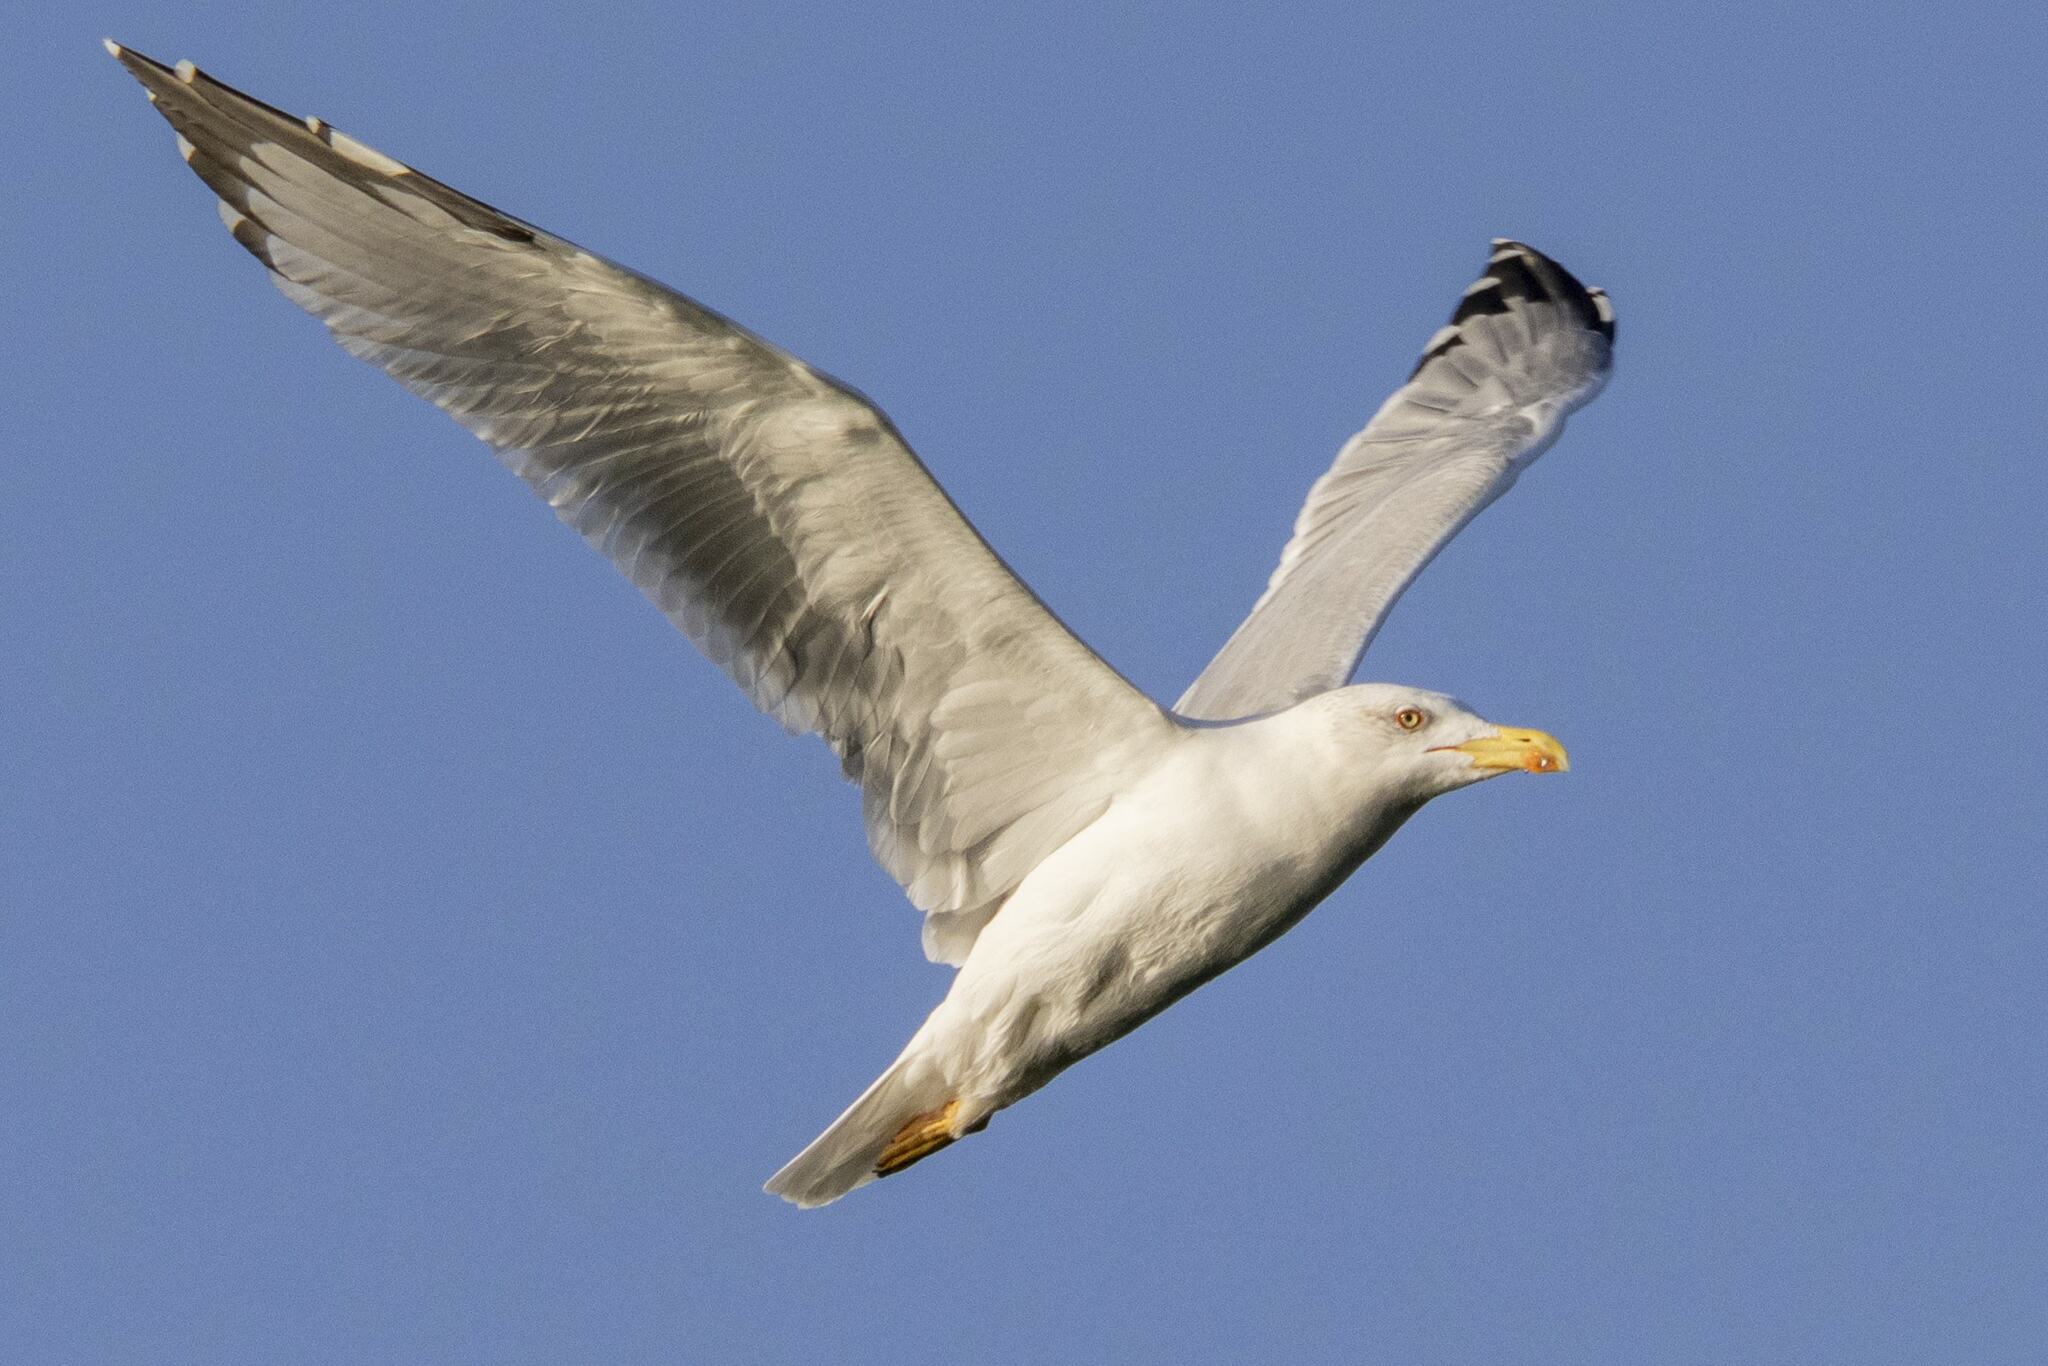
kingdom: Animalia
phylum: Chordata
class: Aves
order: Charadriiformes
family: Laridae
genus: Larus
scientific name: Larus michahellis
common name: Yellow-legged gull
